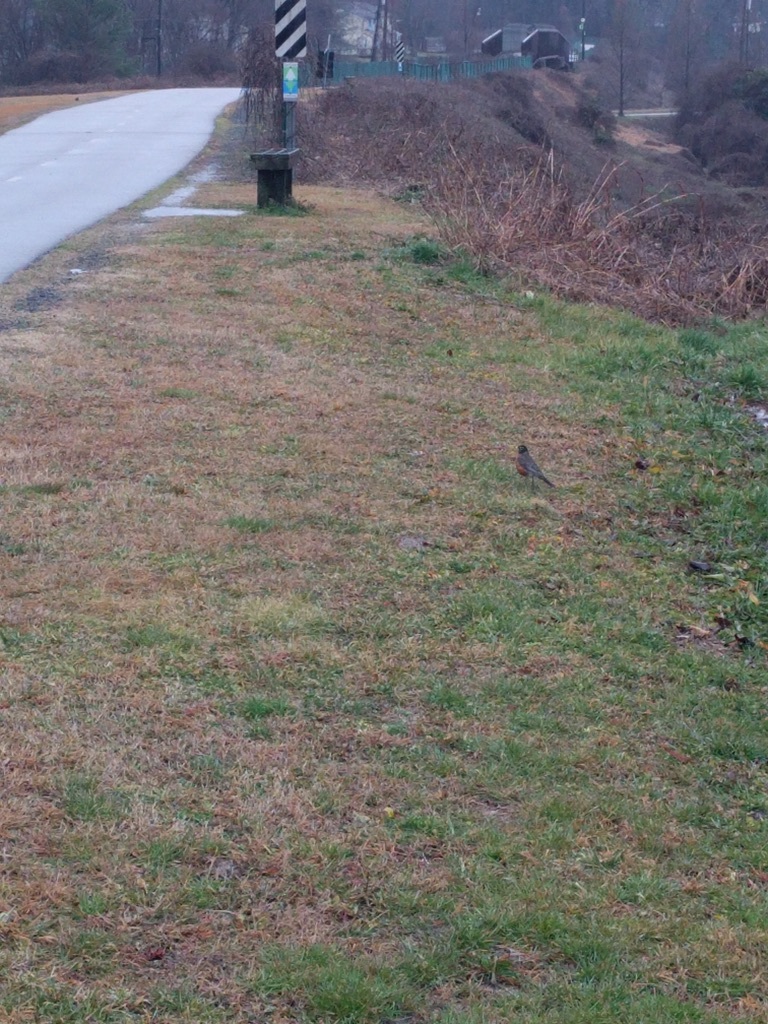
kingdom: Animalia
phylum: Chordata
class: Aves
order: Passeriformes
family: Turdidae
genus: Turdus
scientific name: Turdus migratorius
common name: American robin
